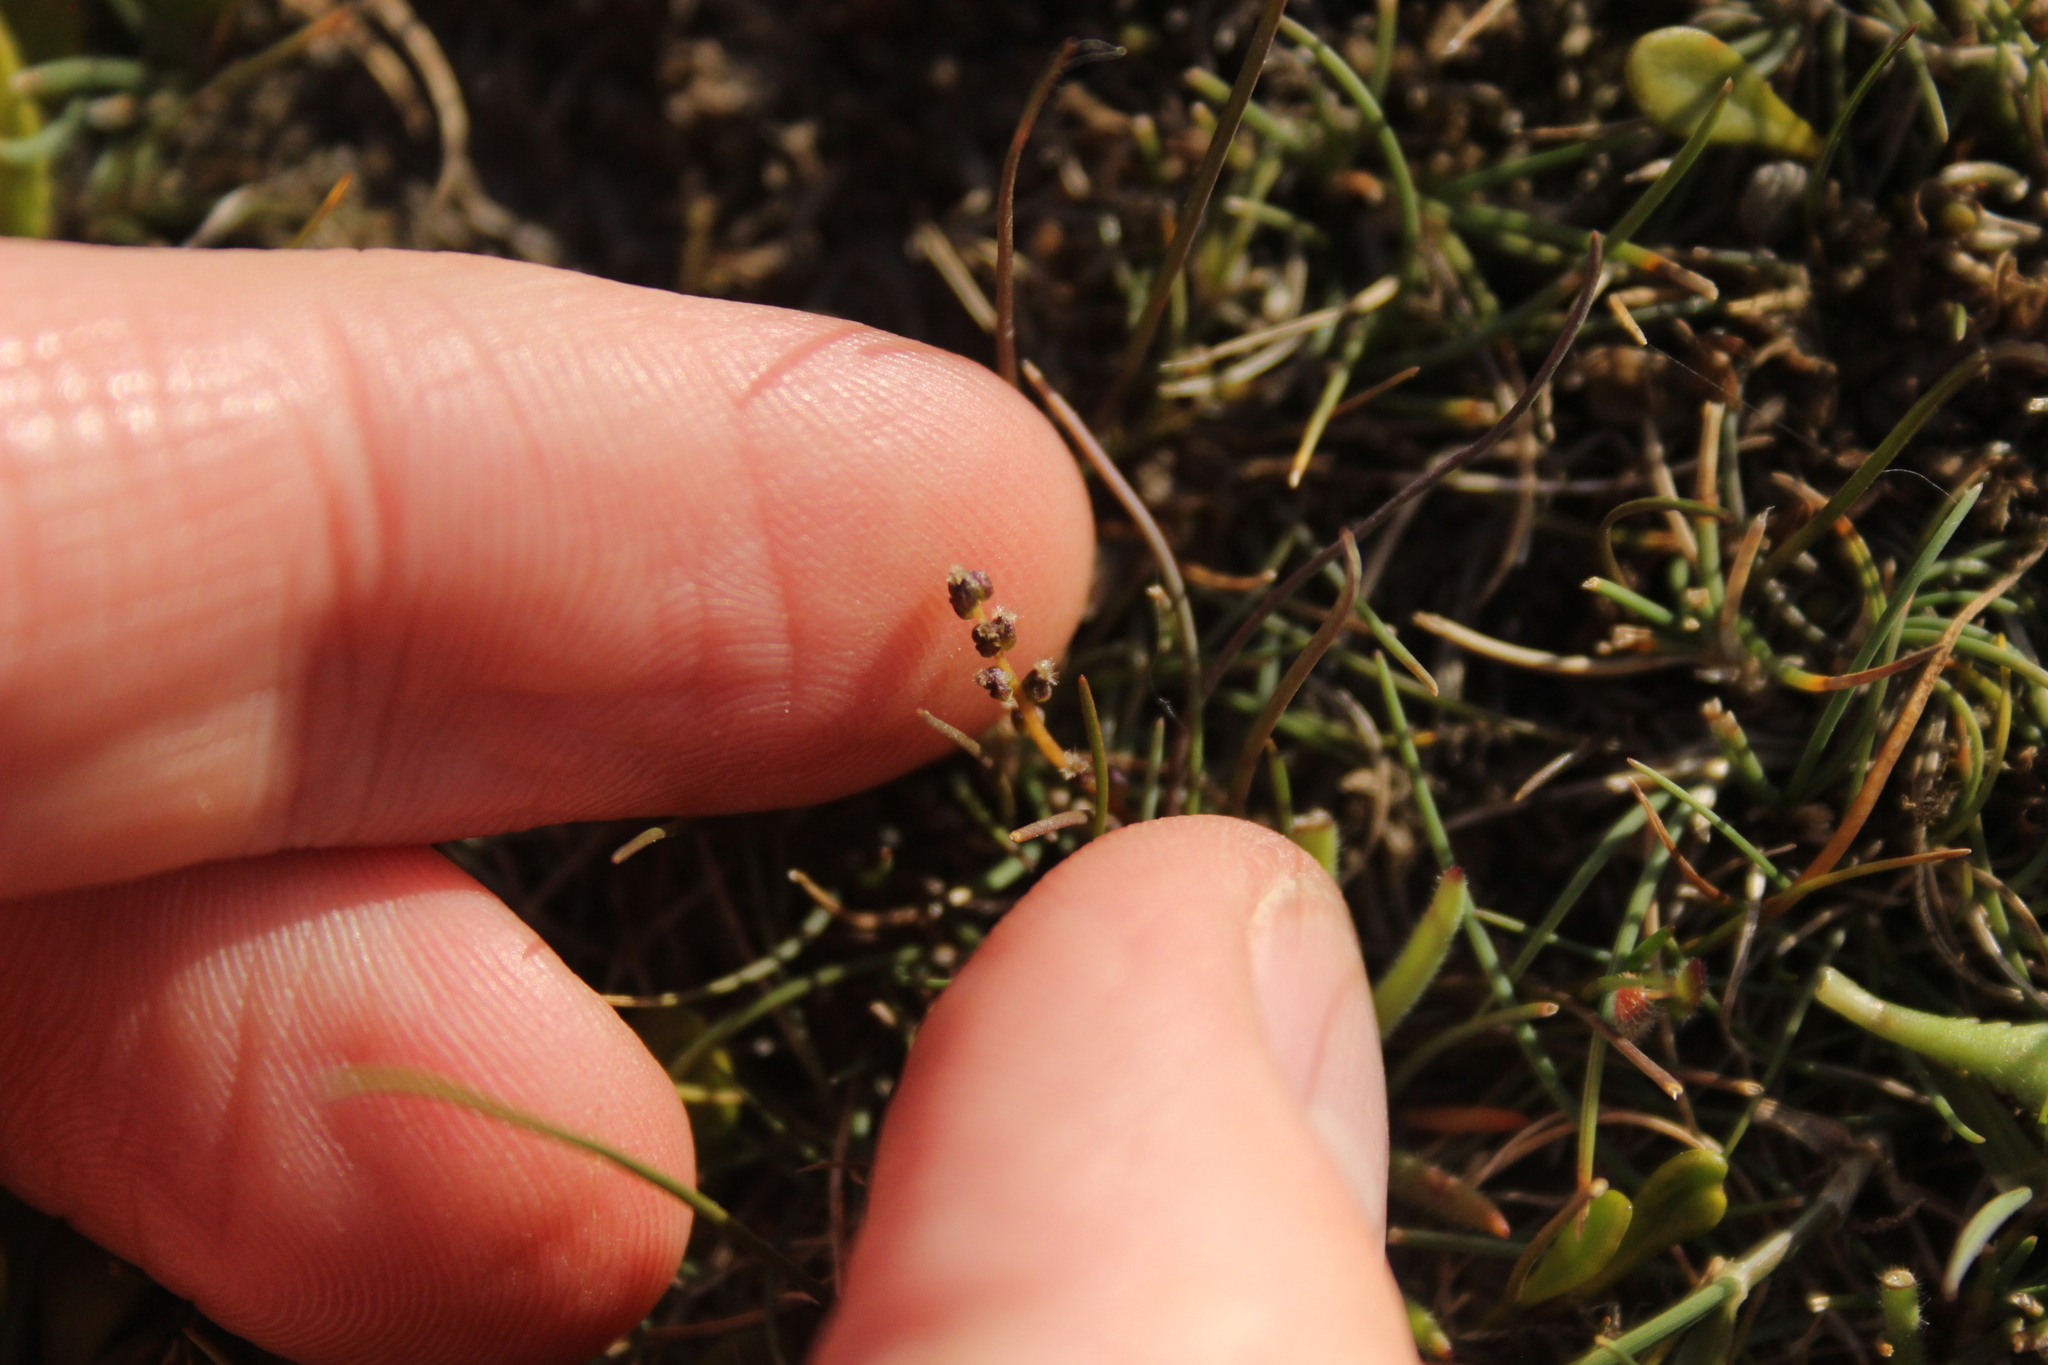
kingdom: Plantae
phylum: Tracheophyta
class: Liliopsida
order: Alismatales
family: Juncaginaceae
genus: Triglochin
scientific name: Triglochin striata
